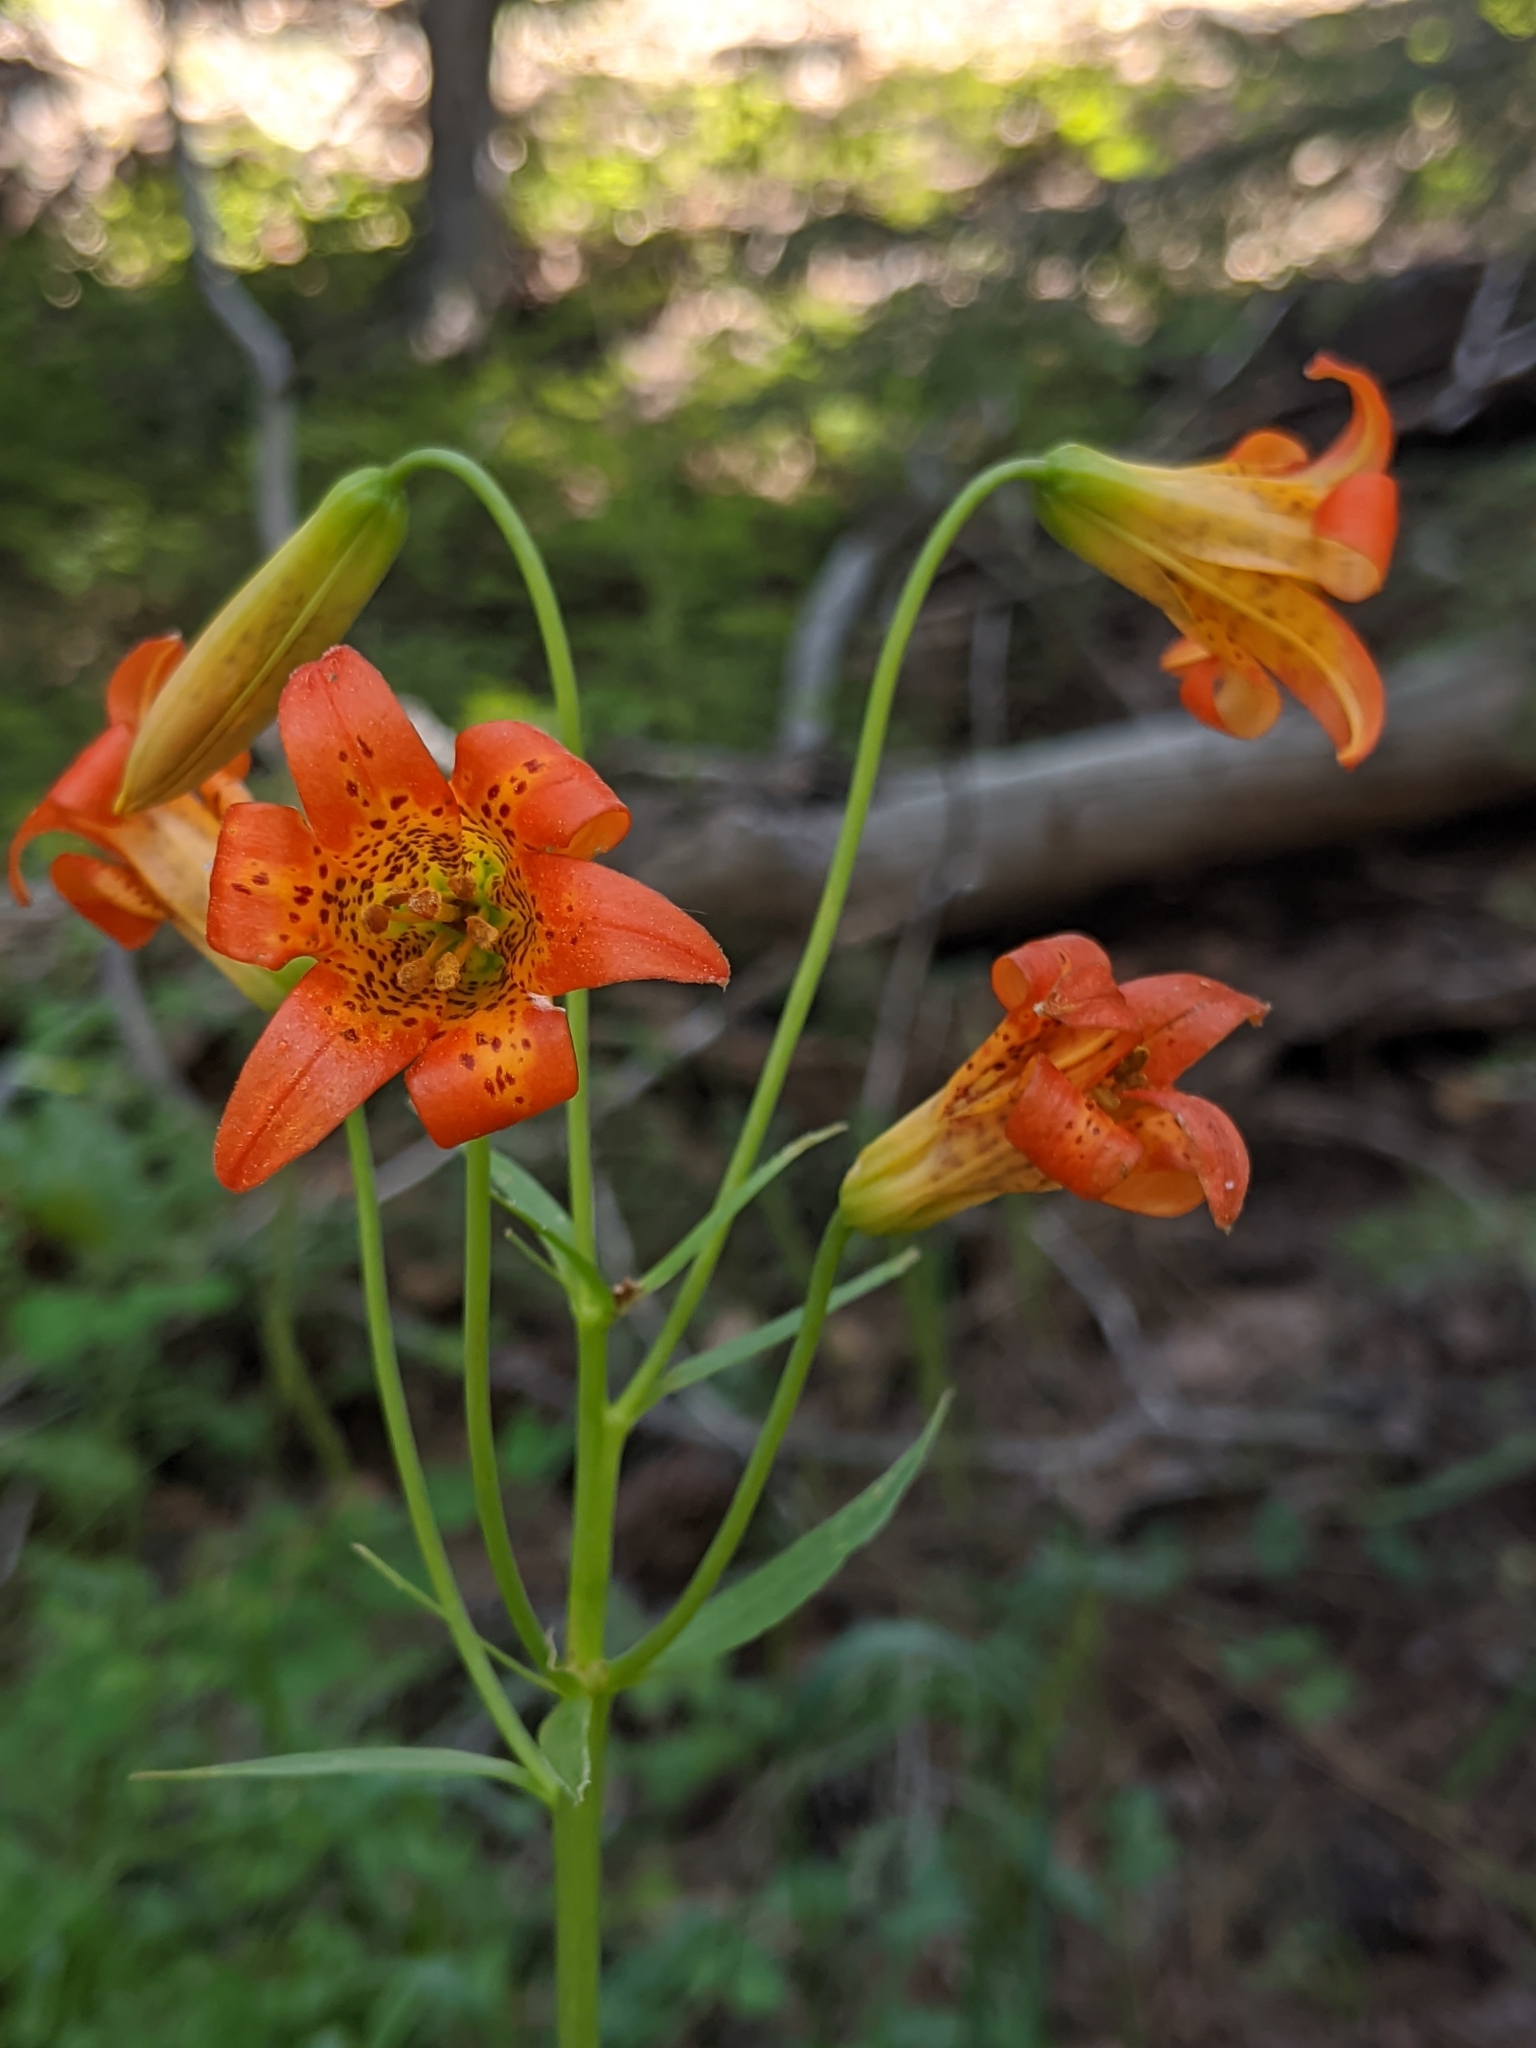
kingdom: Plantae
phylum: Tracheophyta
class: Liliopsida
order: Liliales
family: Liliaceae
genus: Lilium
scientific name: Lilium parvum
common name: Alpine lily
